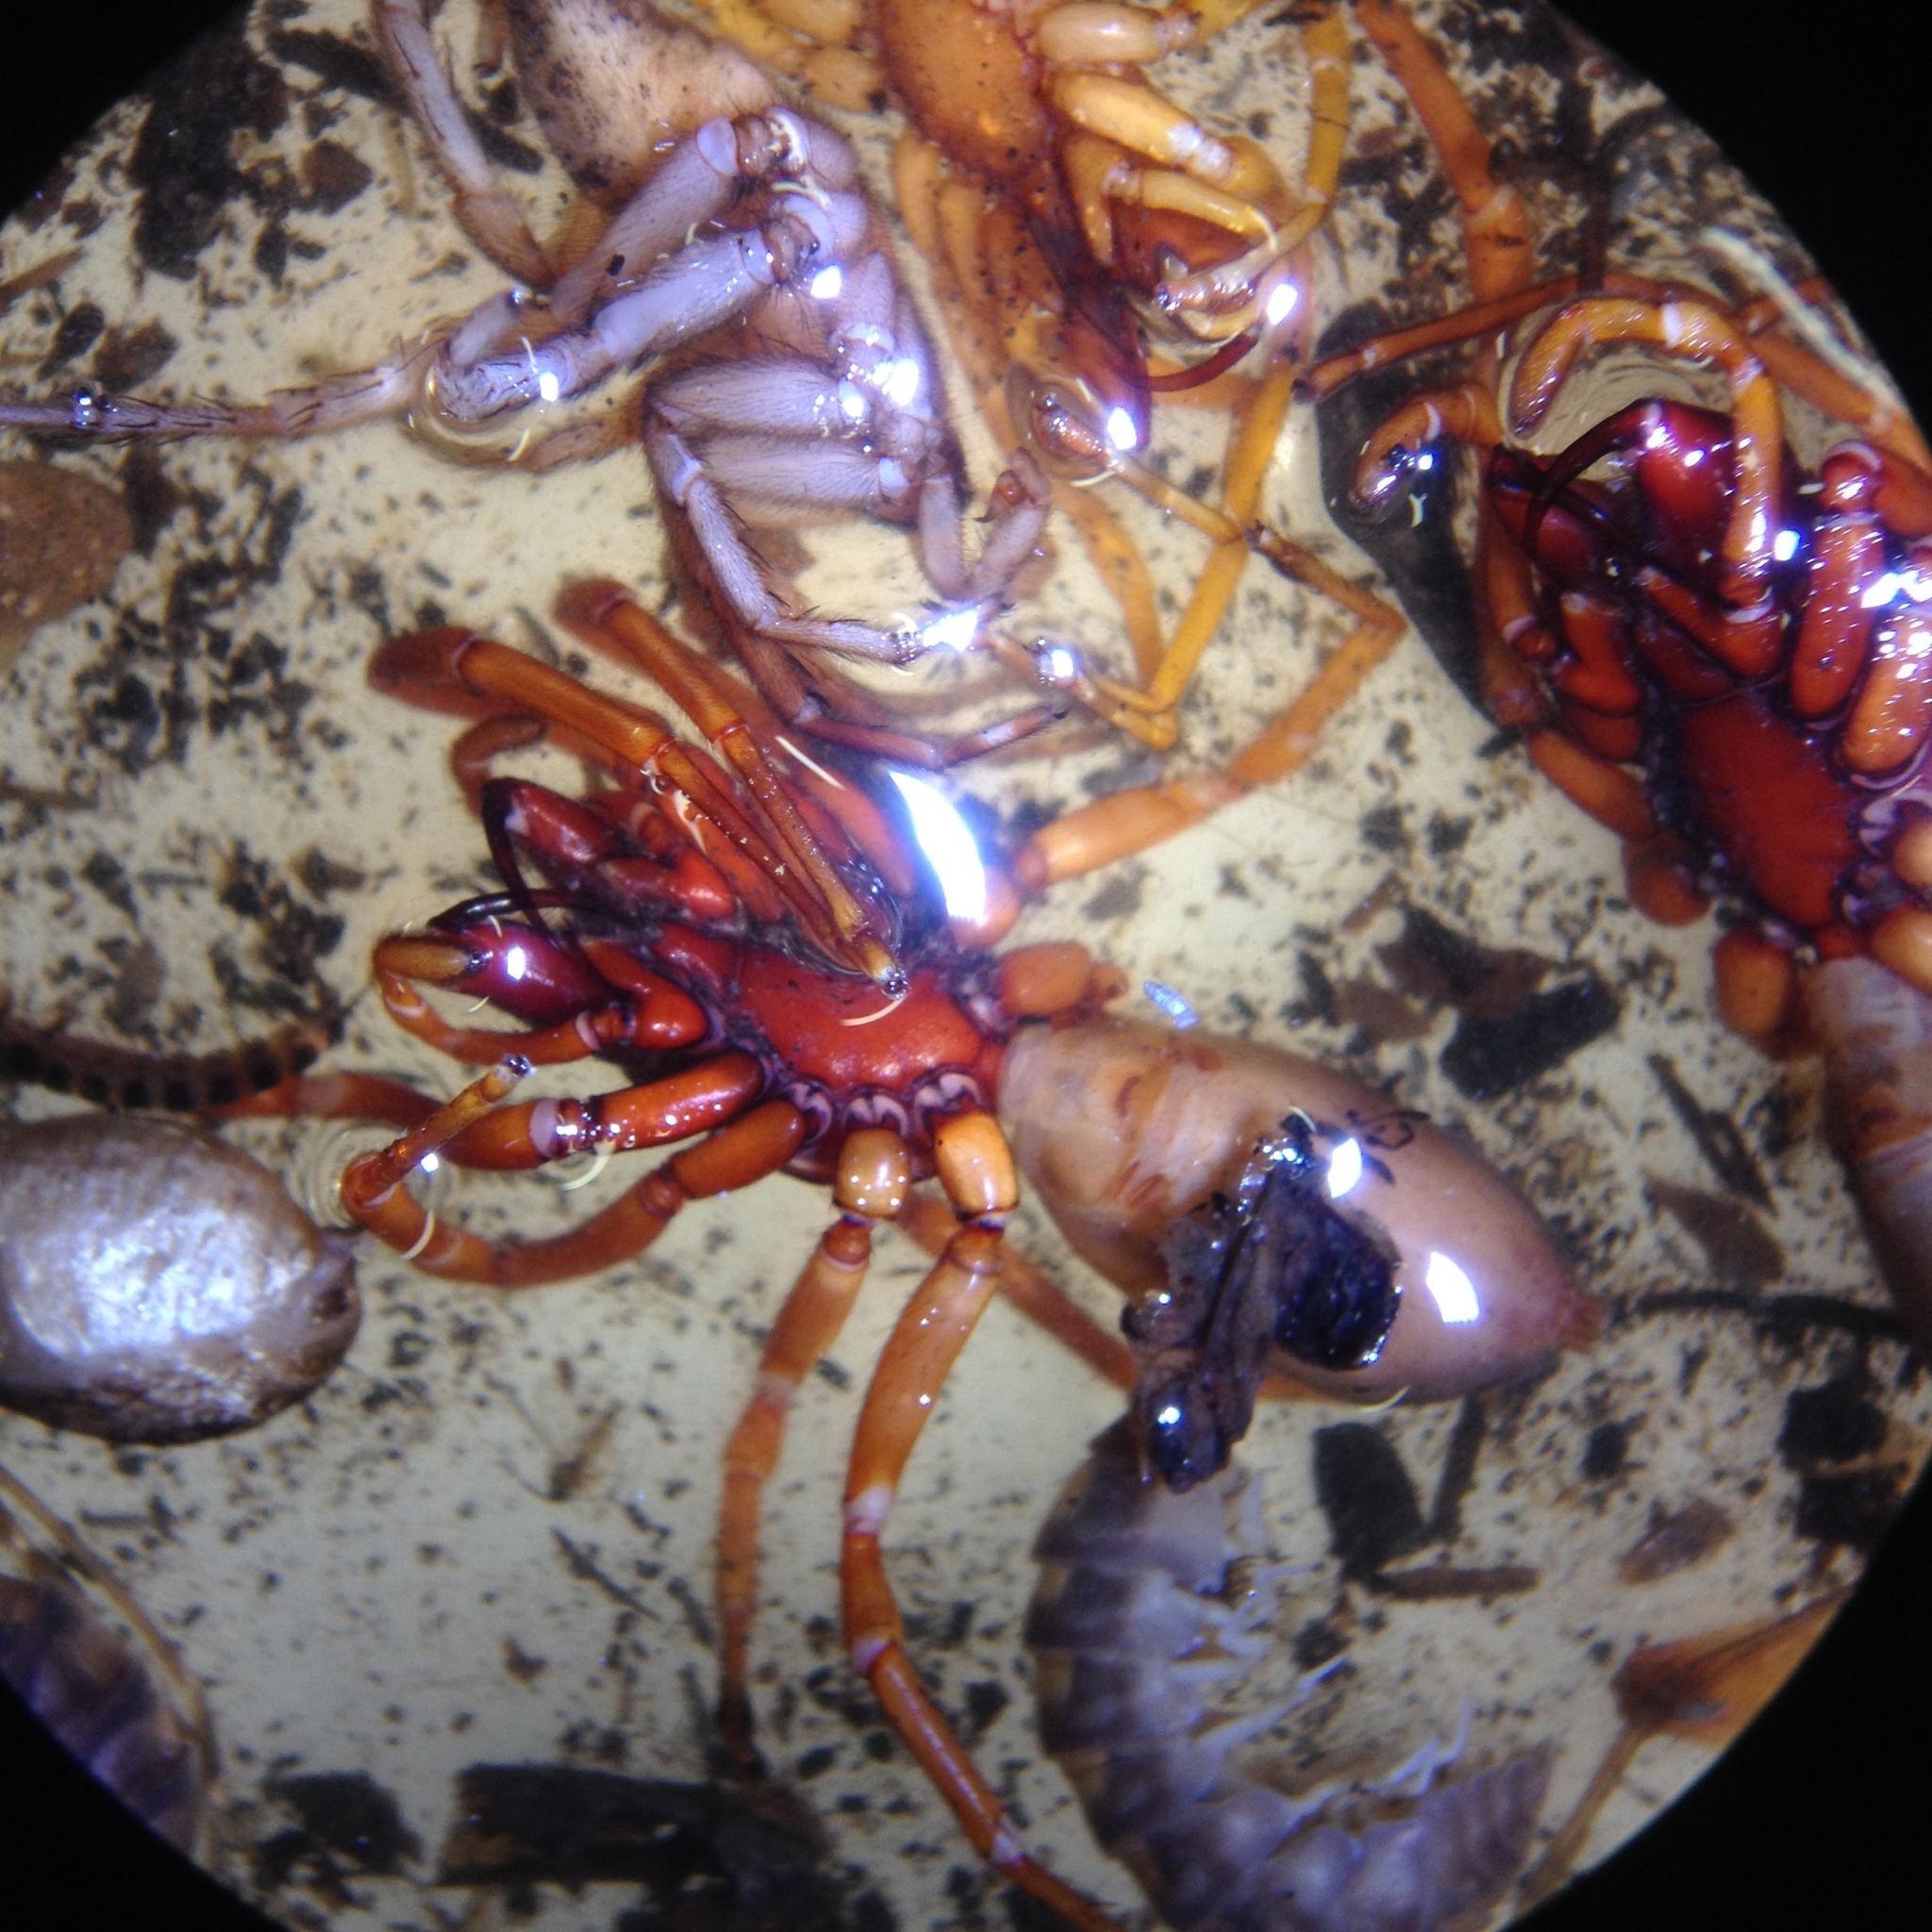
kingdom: Animalia
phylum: Arthropoda
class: Arachnida
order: Araneae
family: Dysderidae
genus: Dysdera
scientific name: Dysdera crocata
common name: Woodlouse spider
